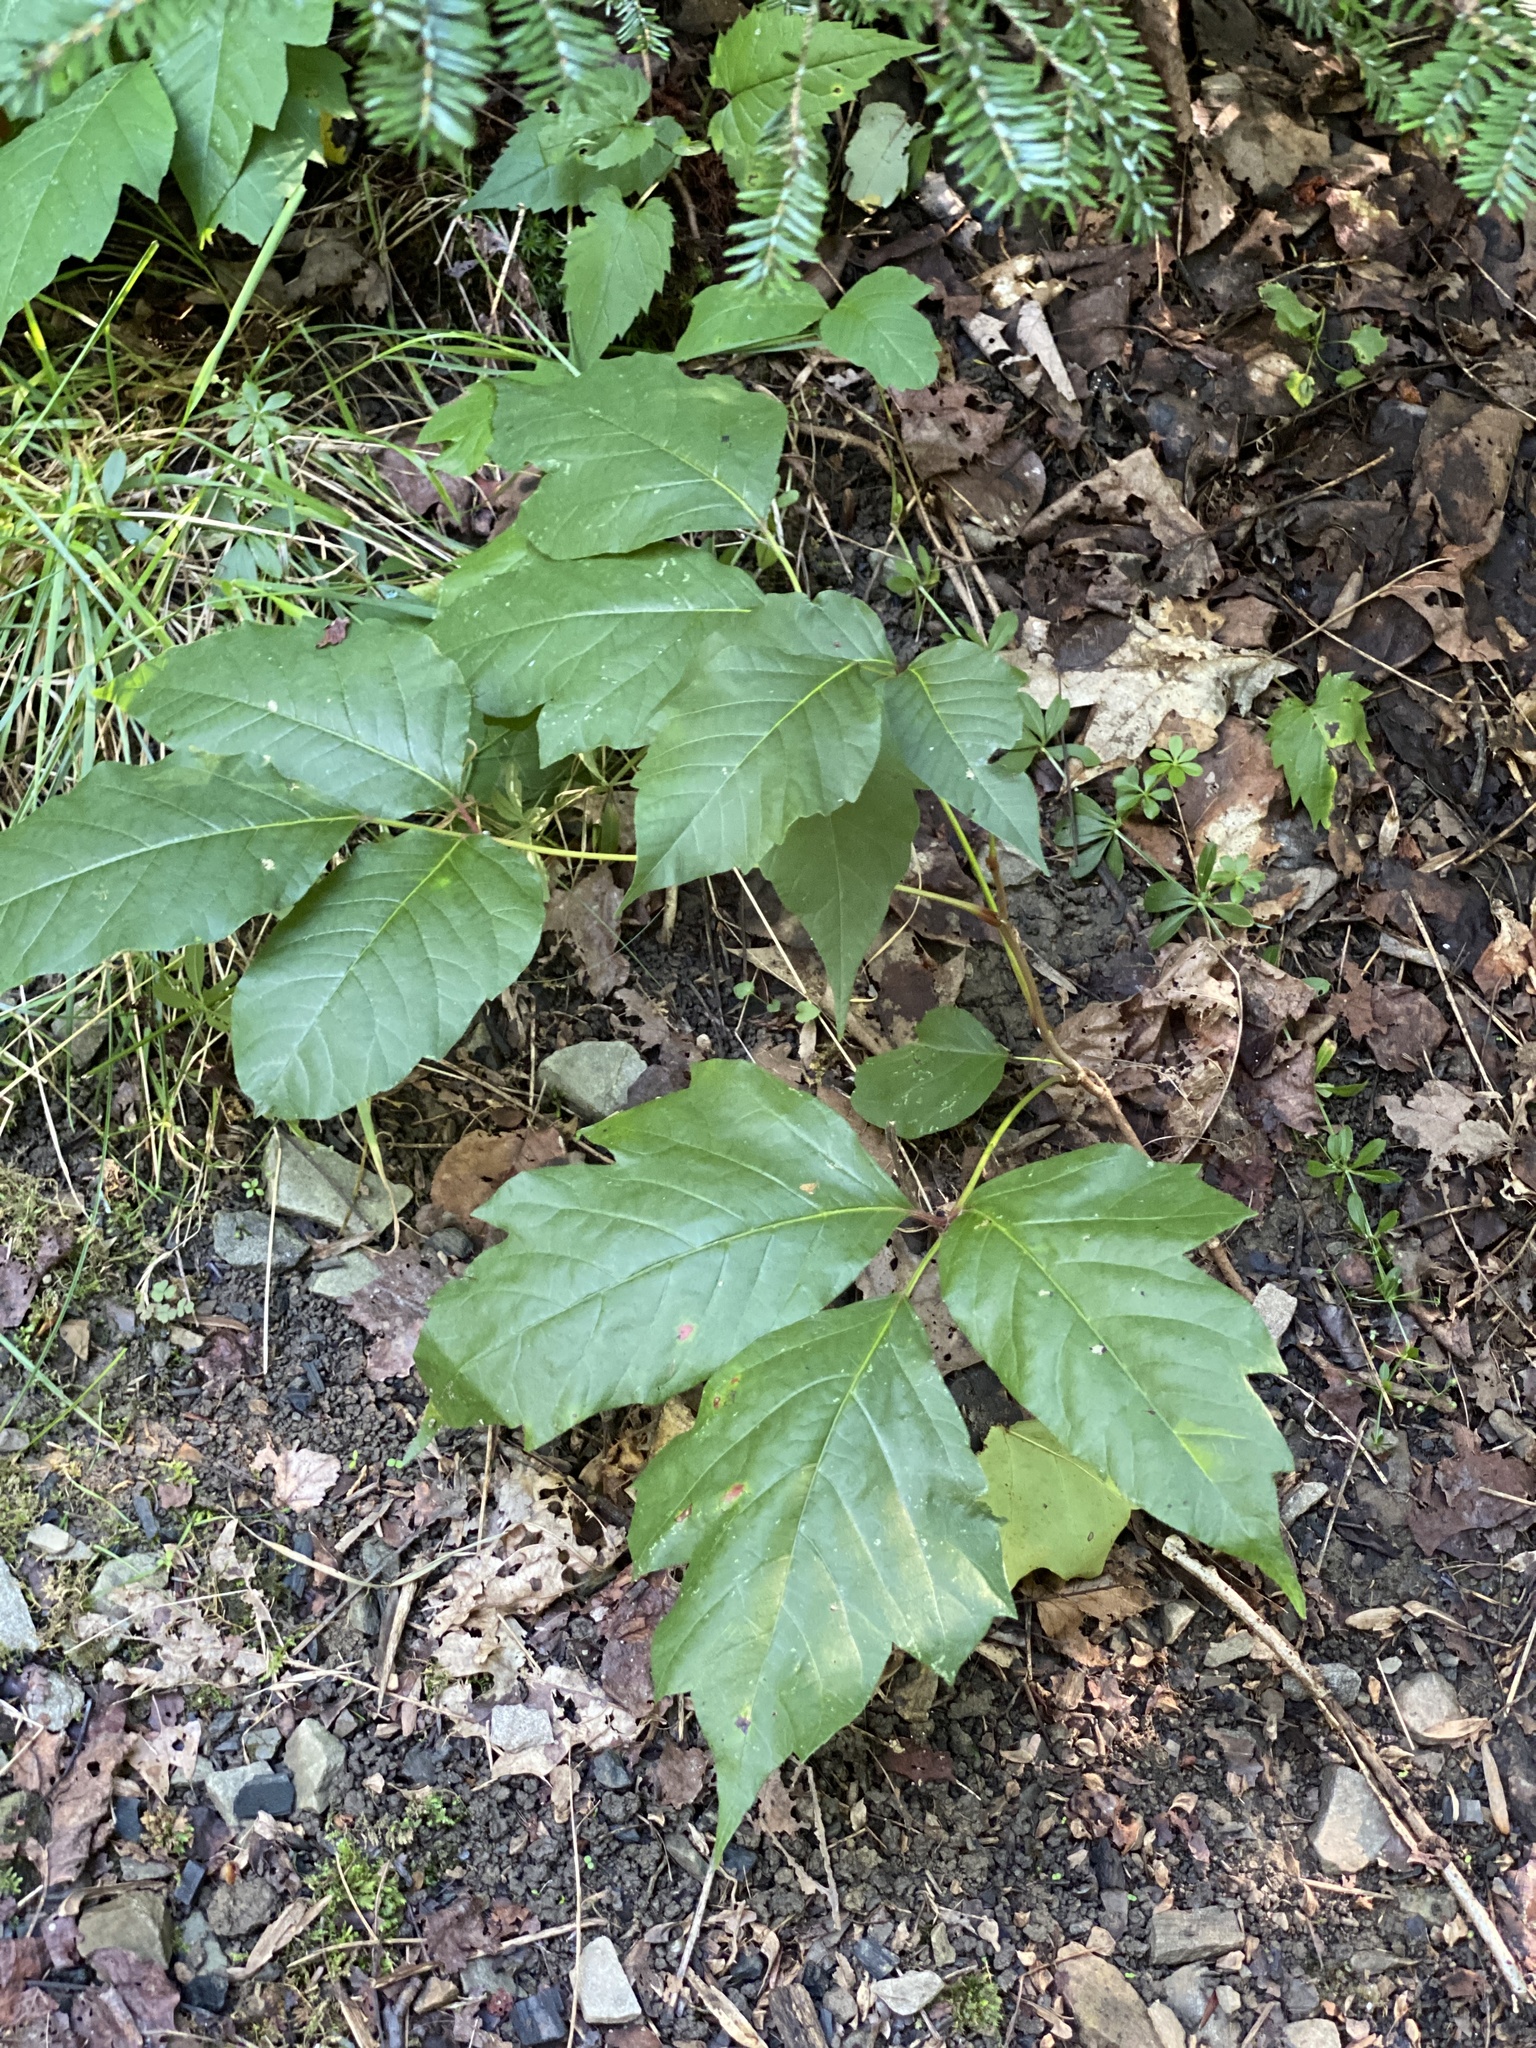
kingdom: Plantae
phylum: Tracheophyta
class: Magnoliopsida
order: Sapindales
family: Anacardiaceae
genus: Toxicodendron
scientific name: Toxicodendron radicans
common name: Poison ivy
